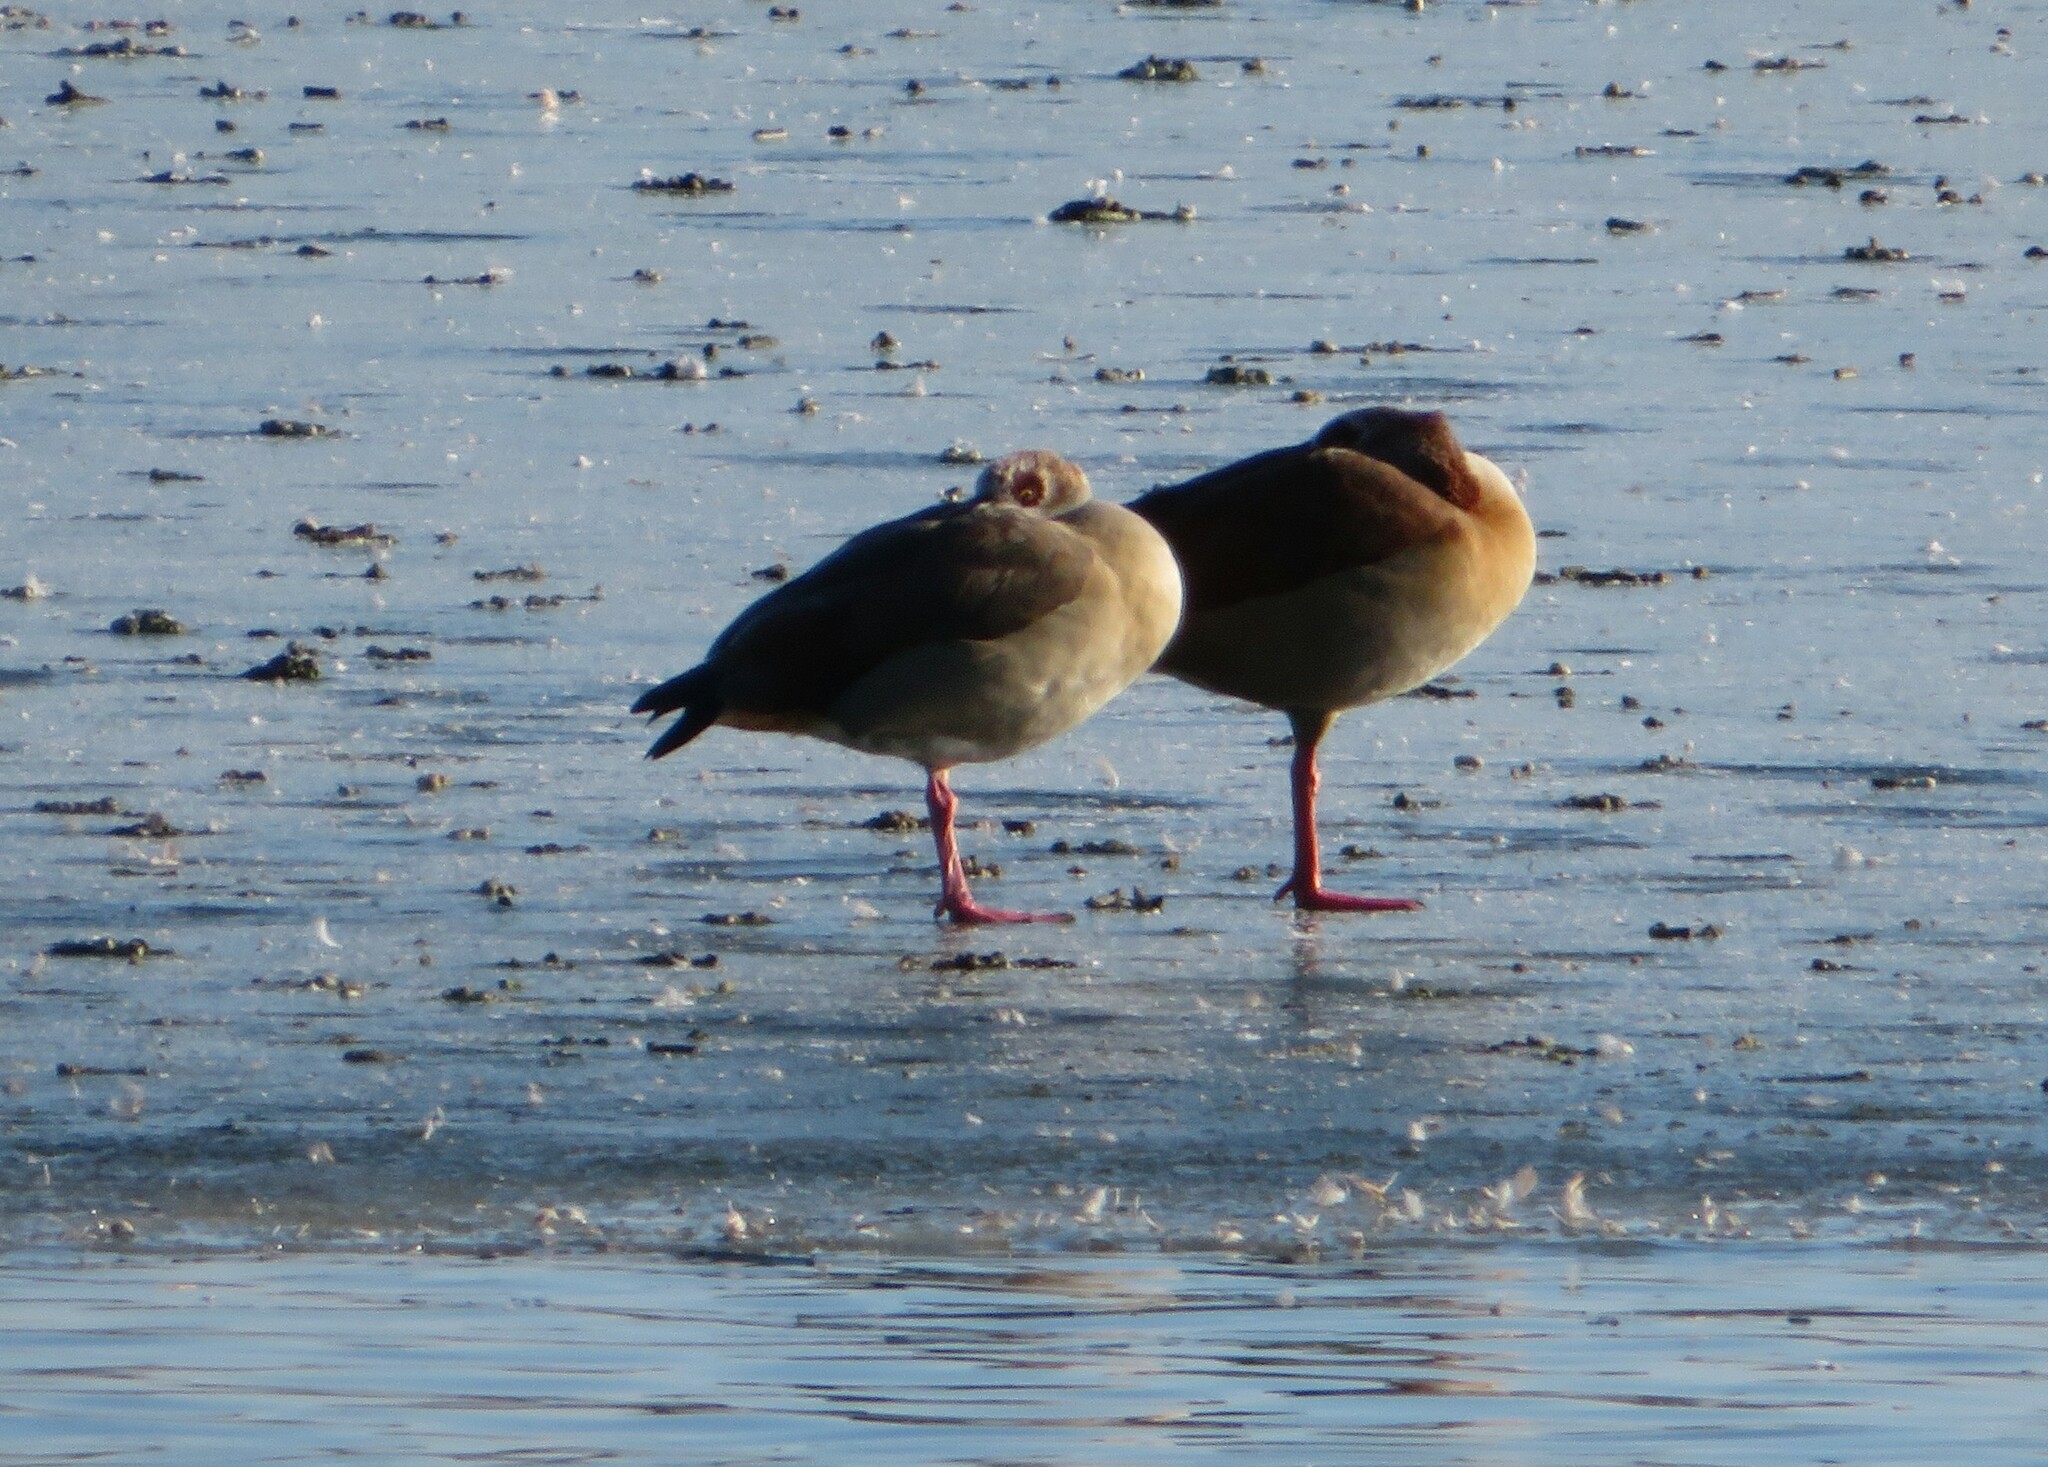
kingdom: Animalia
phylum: Chordata
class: Aves
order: Anseriformes
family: Anatidae
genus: Alopochen
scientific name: Alopochen aegyptiaca
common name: Egyptian goose
